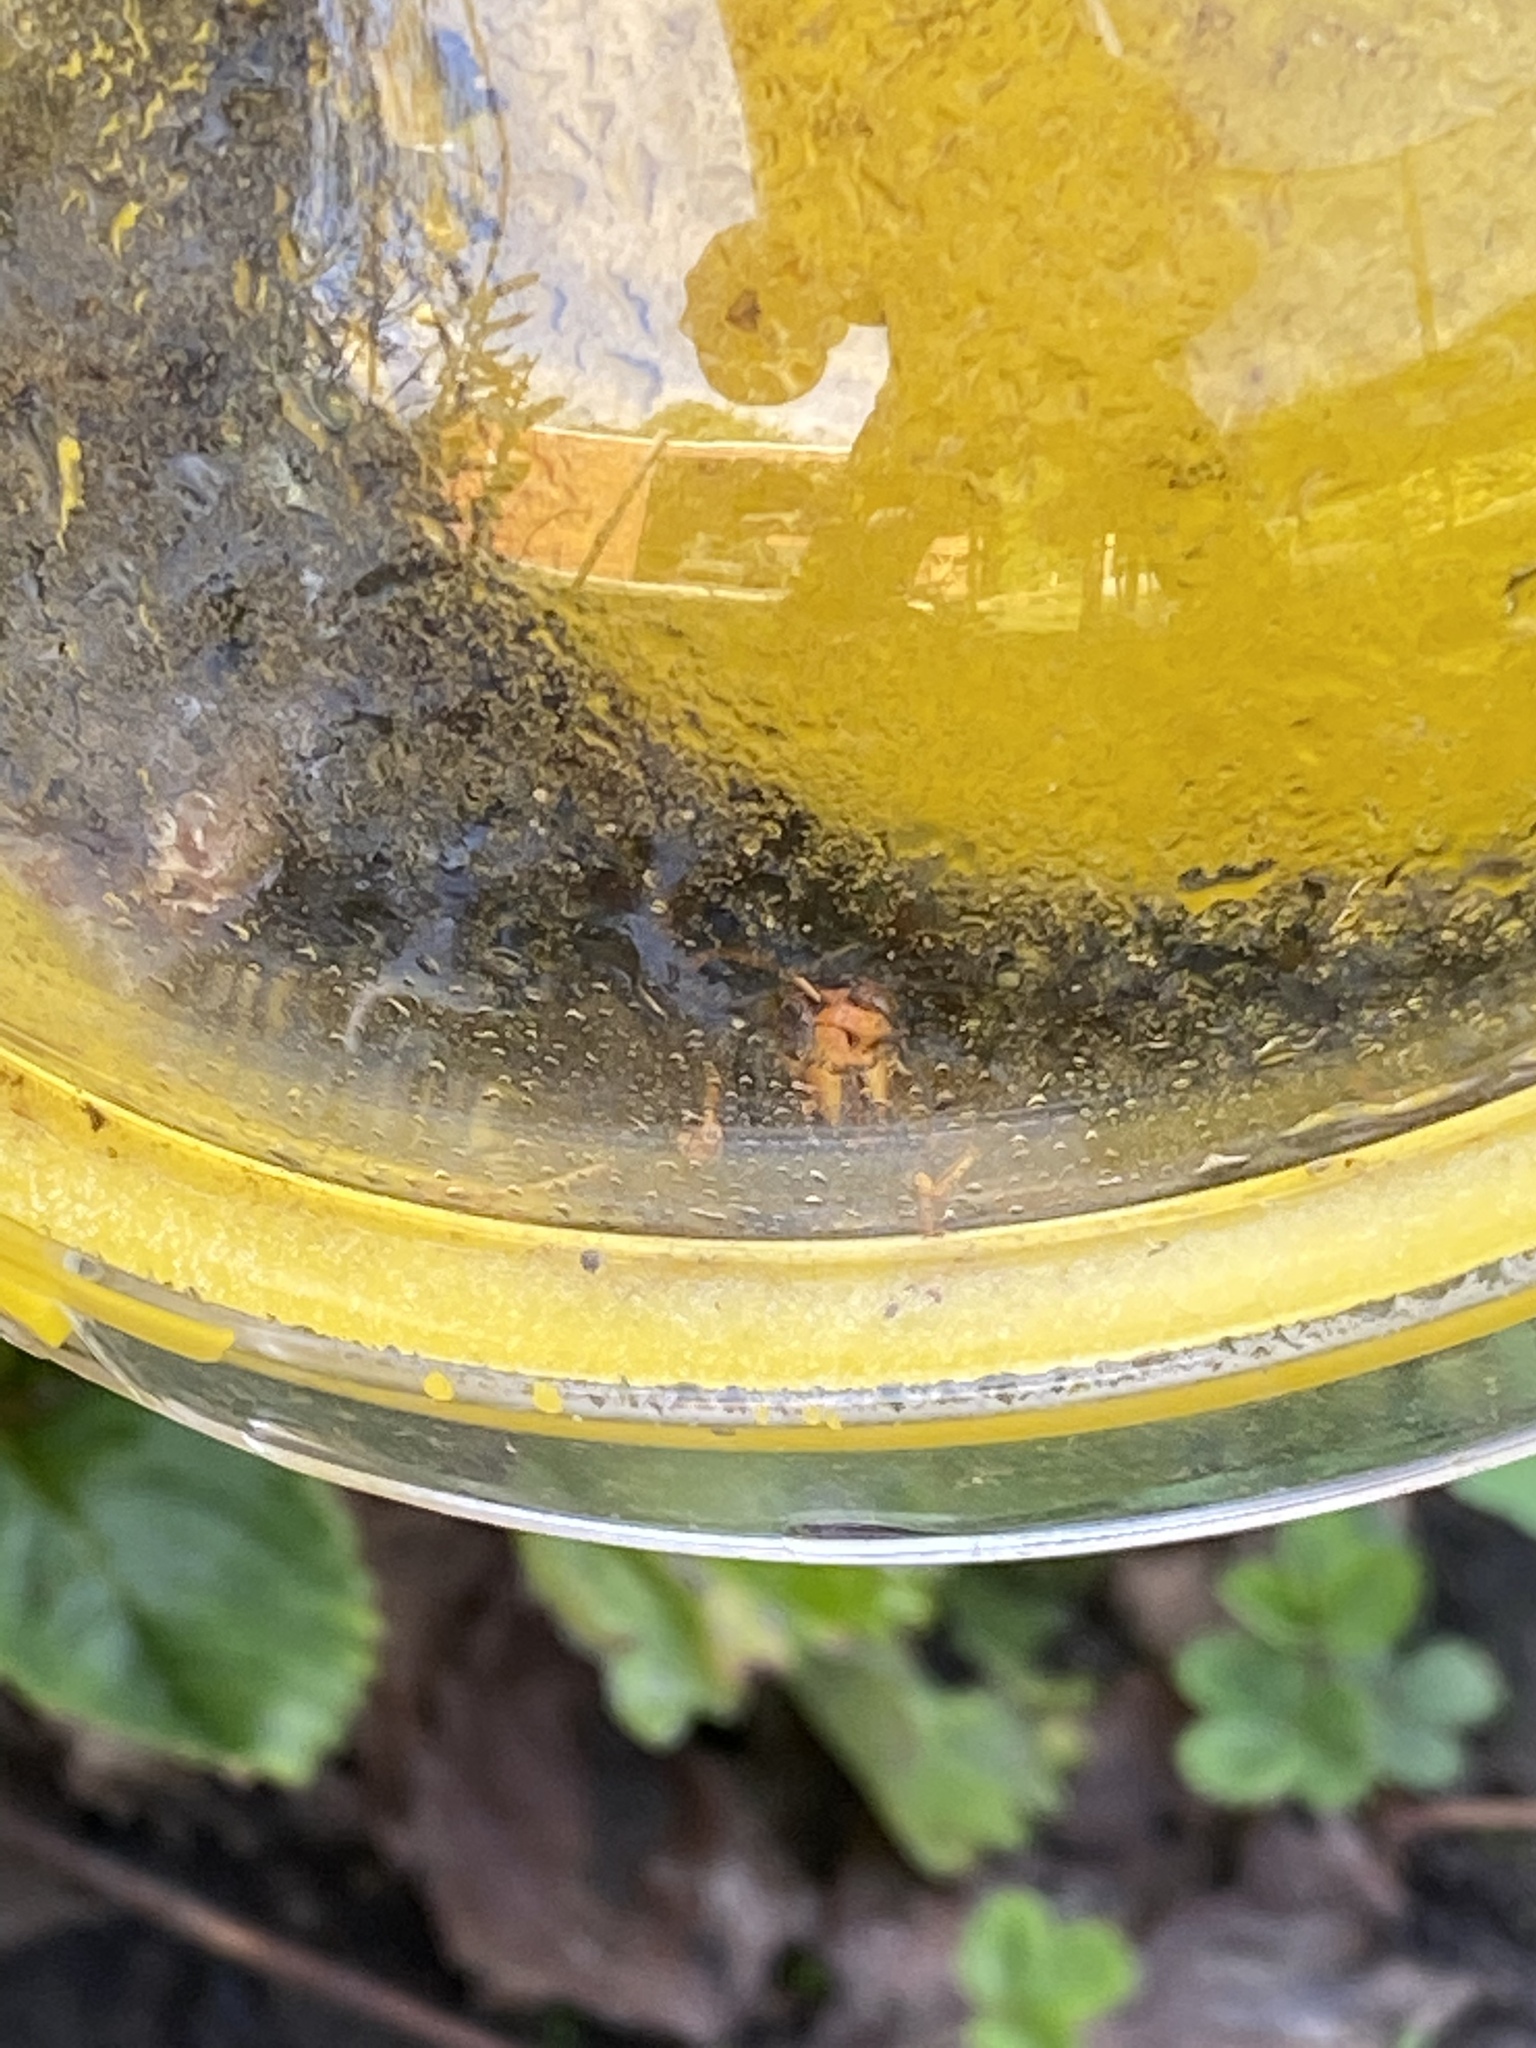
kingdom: Animalia
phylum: Arthropoda
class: Insecta
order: Hymenoptera
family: Vespidae
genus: Vespa
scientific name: Vespa velutina
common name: Asian hornet
